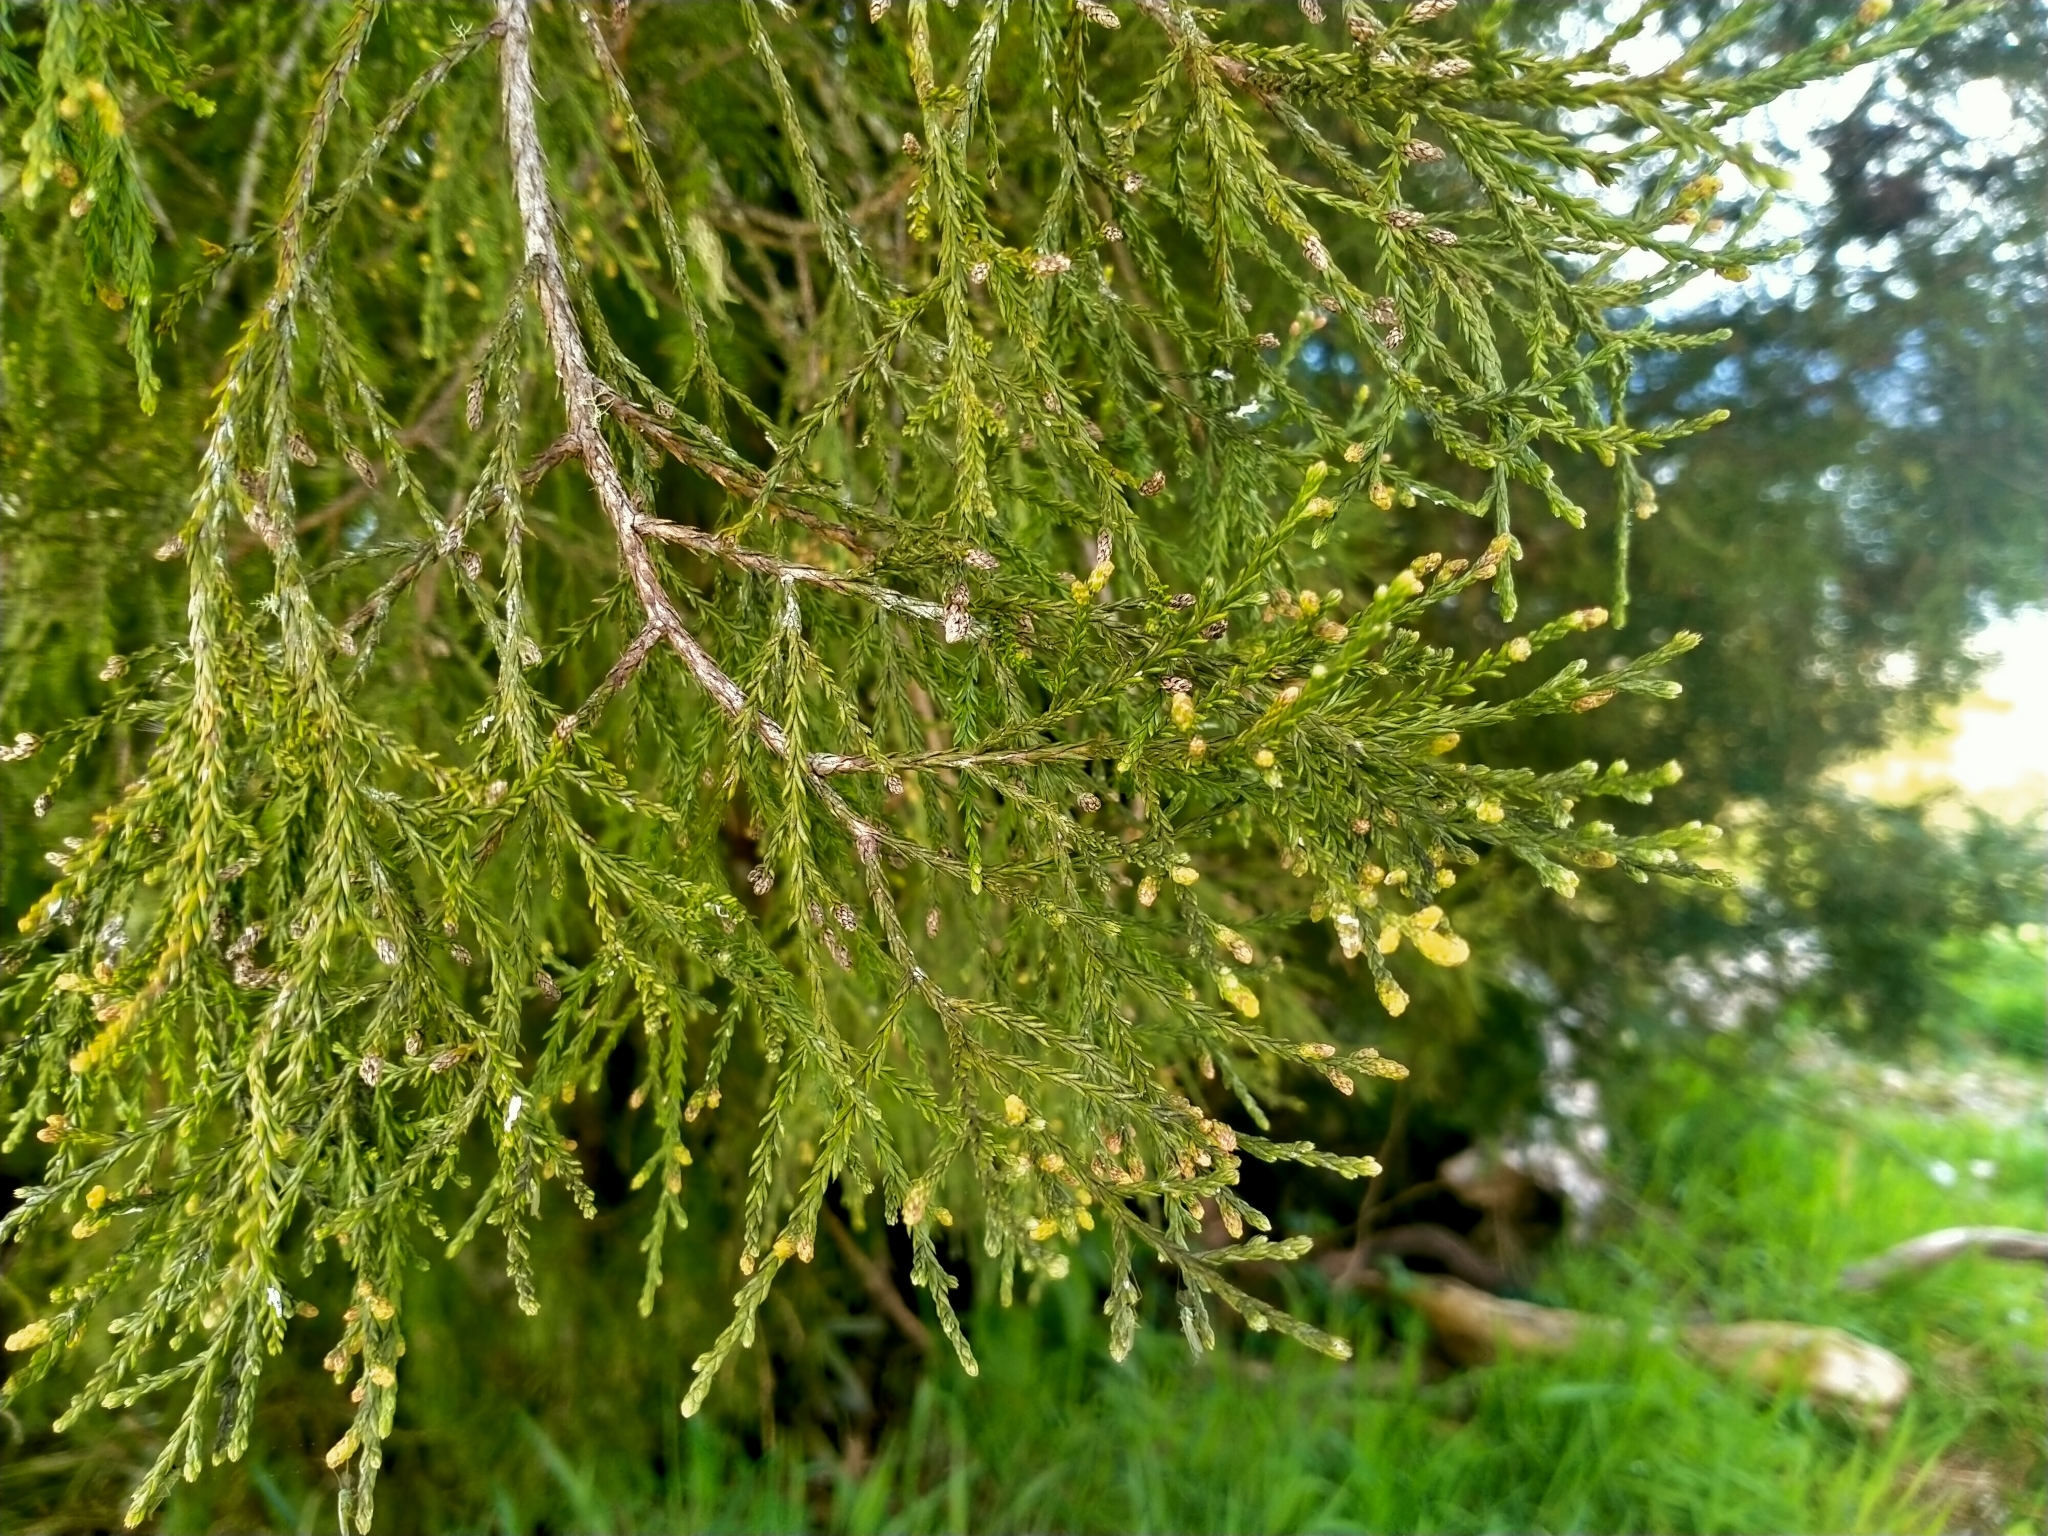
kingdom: Plantae
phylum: Tracheophyta
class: Pinopsida
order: Pinales
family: Podocarpaceae
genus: Dacrycarpus
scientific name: Dacrycarpus dacrydioides
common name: White pine
